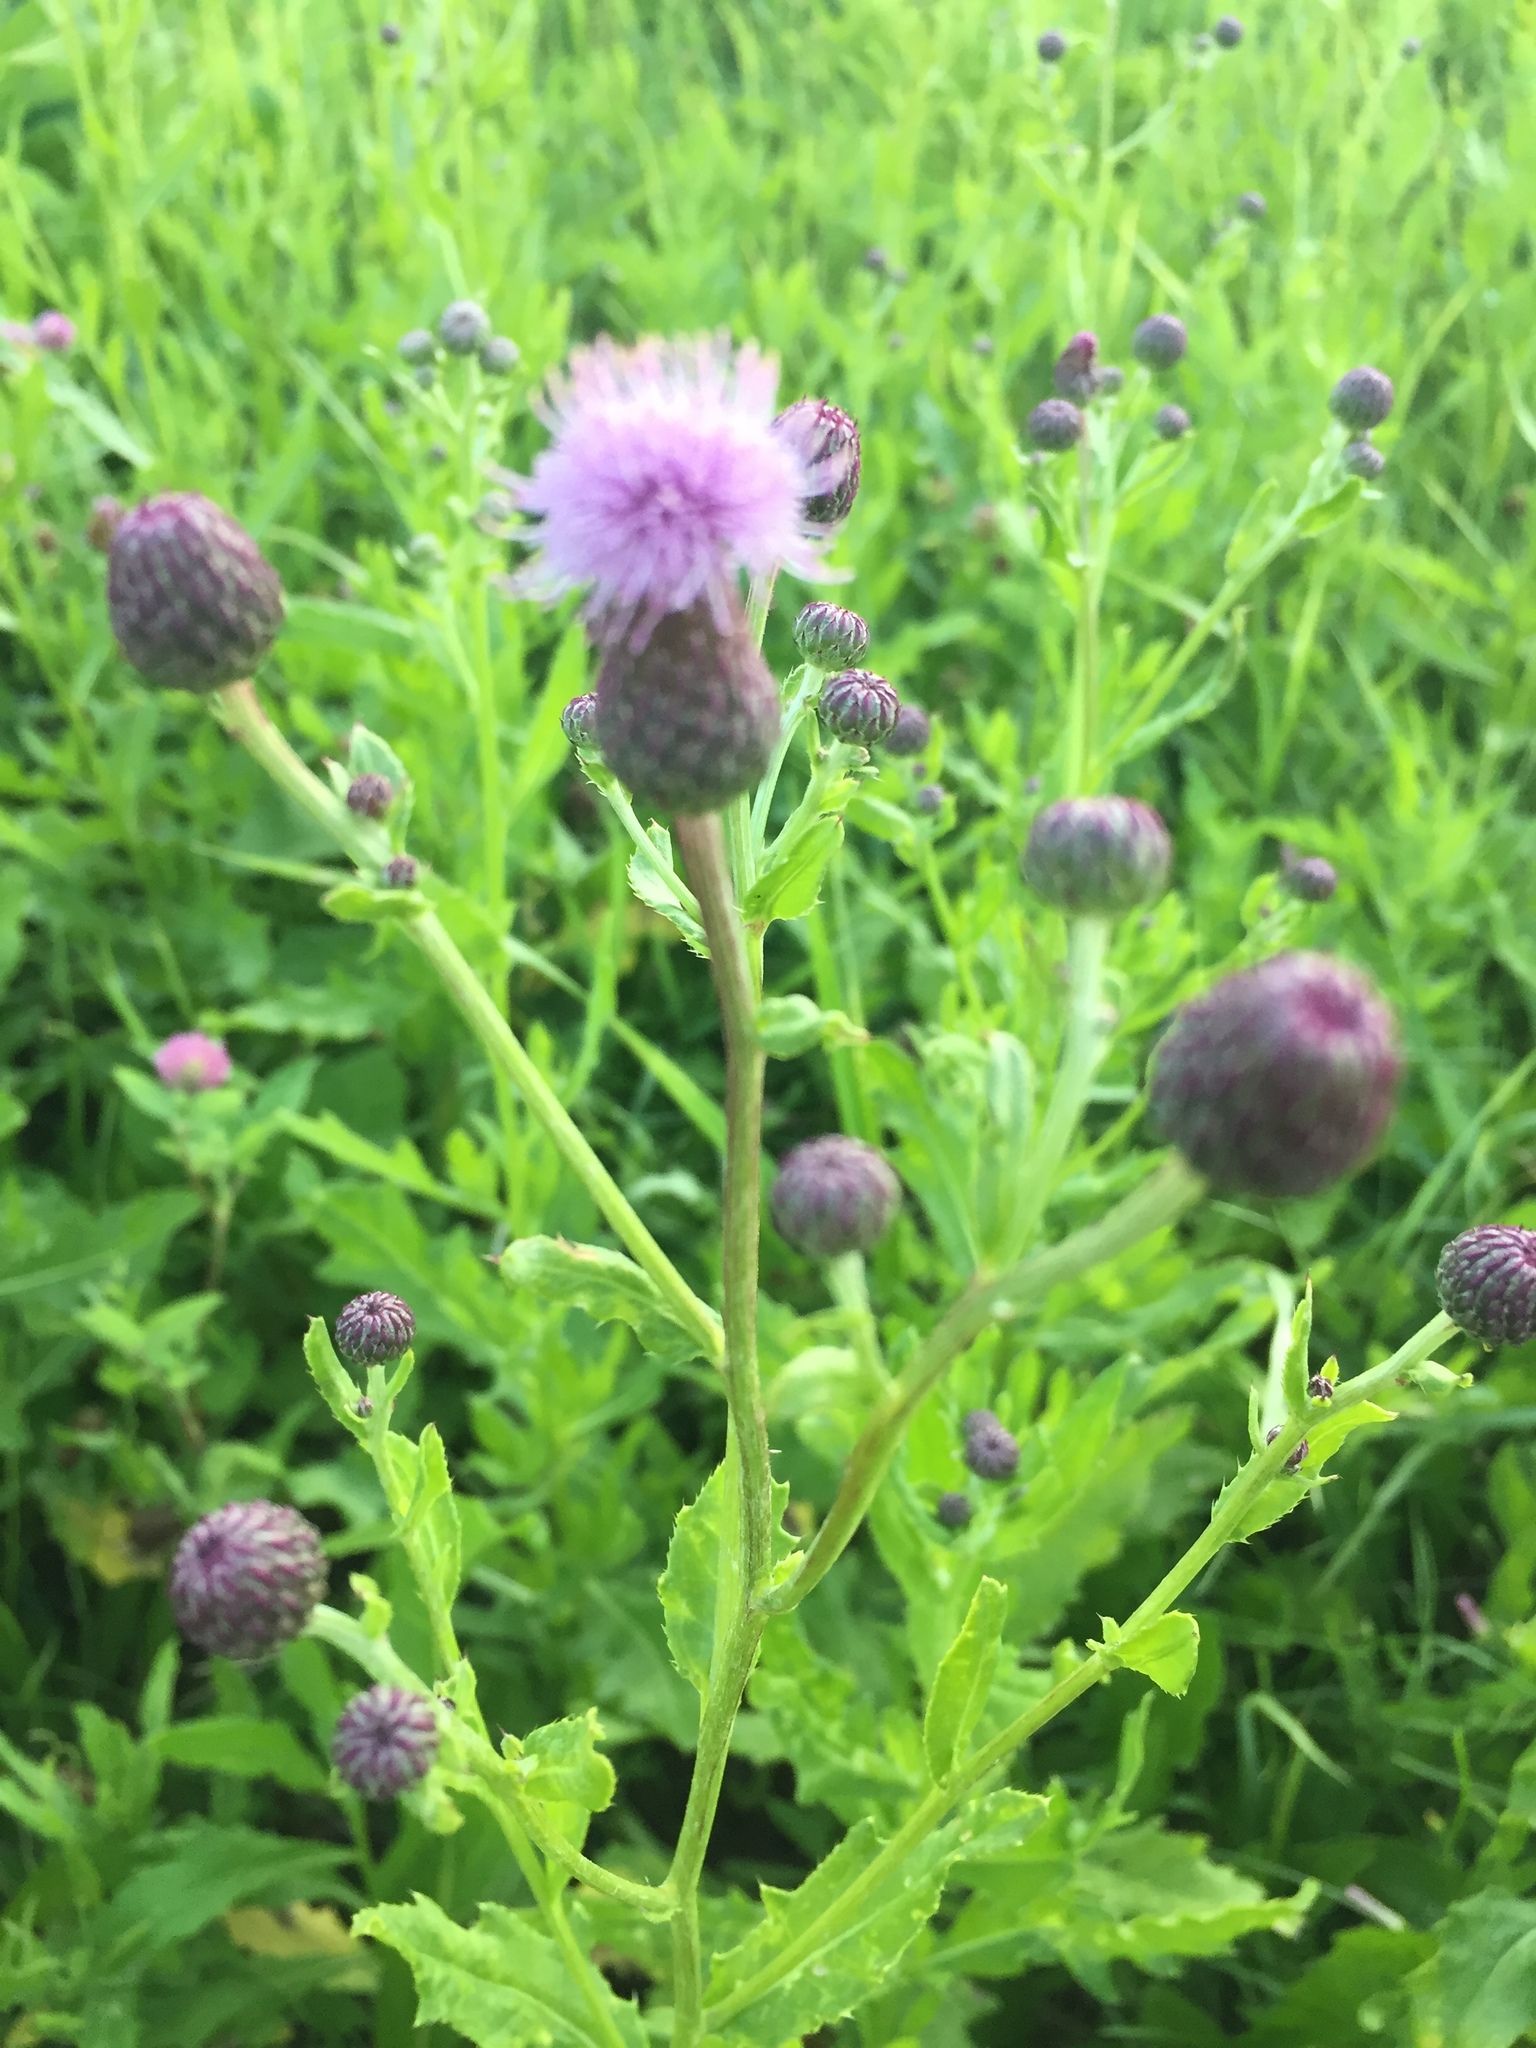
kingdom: Plantae
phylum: Tracheophyta
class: Magnoliopsida
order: Asterales
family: Asteraceae
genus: Cirsium
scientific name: Cirsium arvense
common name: Creeping thistle
